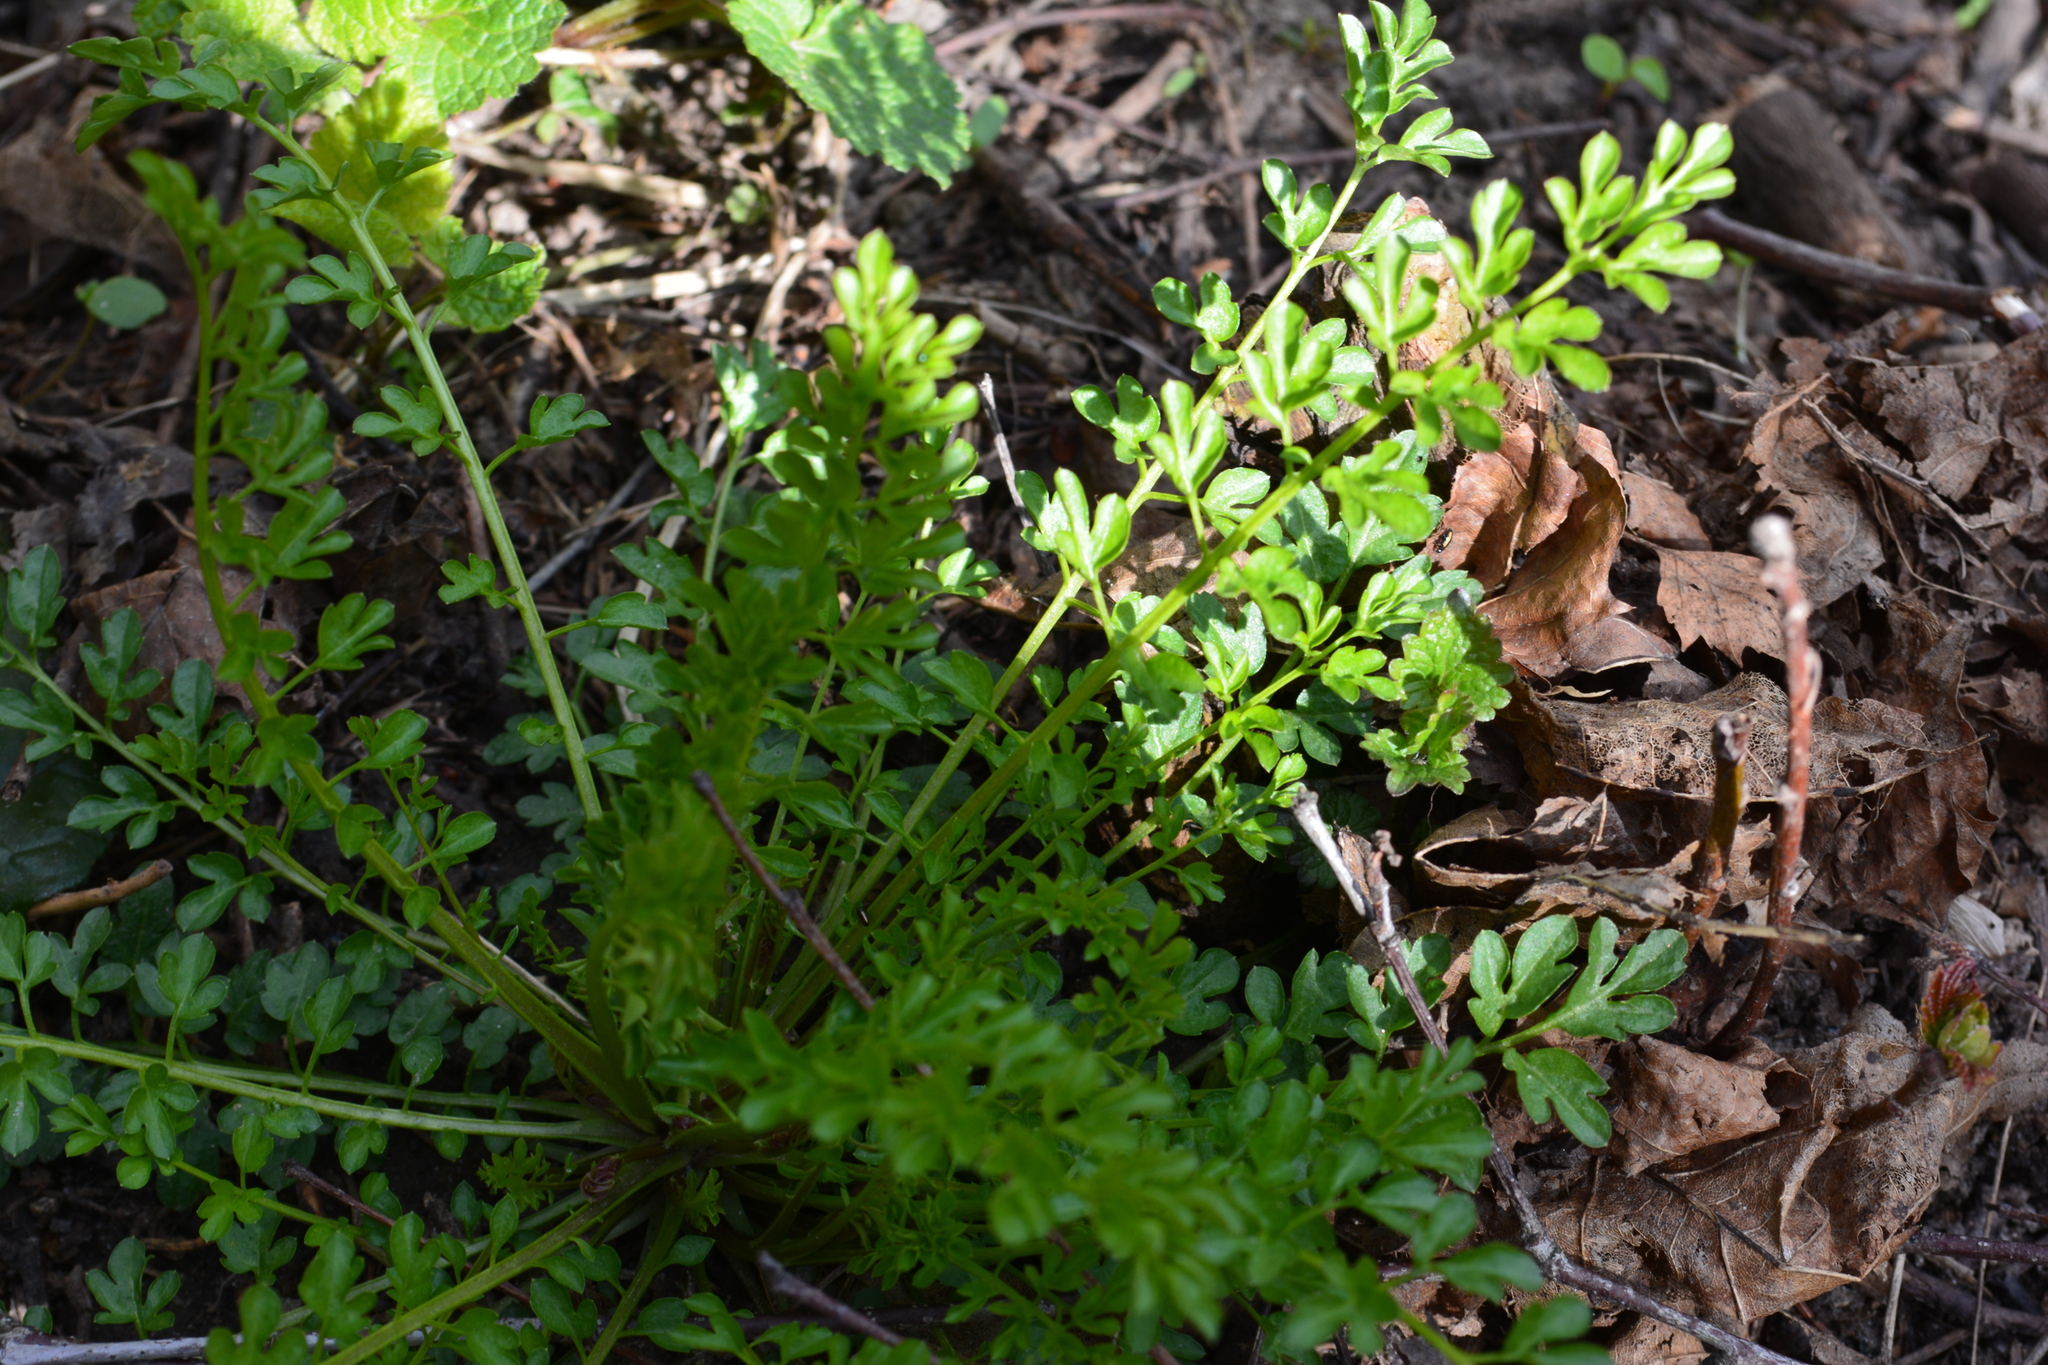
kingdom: Plantae
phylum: Tracheophyta
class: Magnoliopsida
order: Brassicales
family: Brassicaceae
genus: Cardamine
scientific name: Cardamine impatiens
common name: Narrow-leaved bitter-cress
